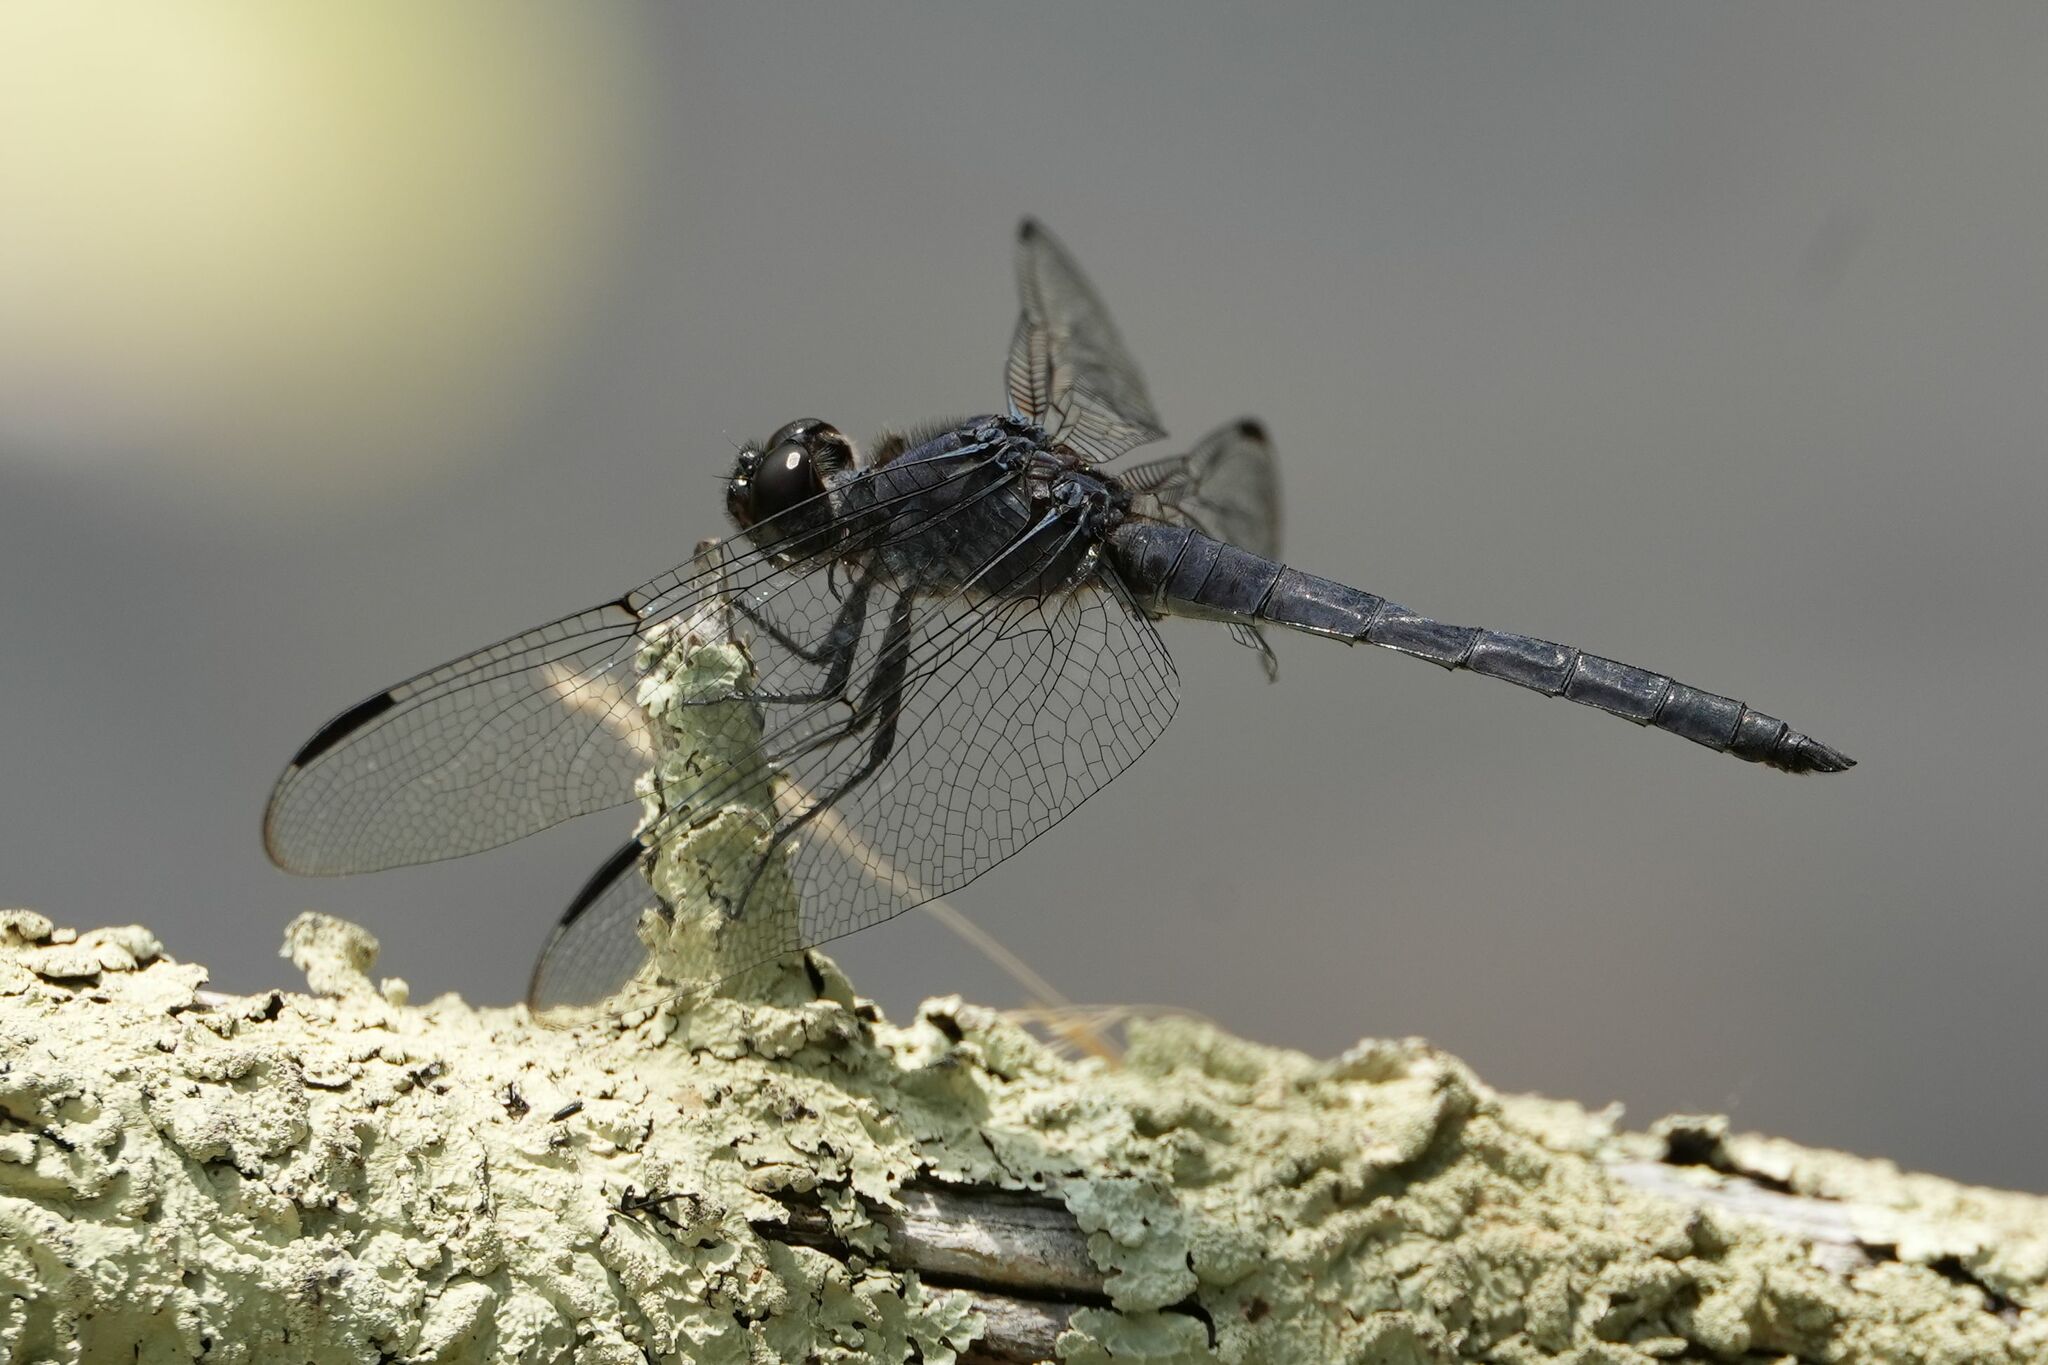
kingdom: Animalia
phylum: Arthropoda
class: Insecta
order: Odonata
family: Libellulidae
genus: Libellula
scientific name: Libellula incesta
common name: Slaty skimmer
